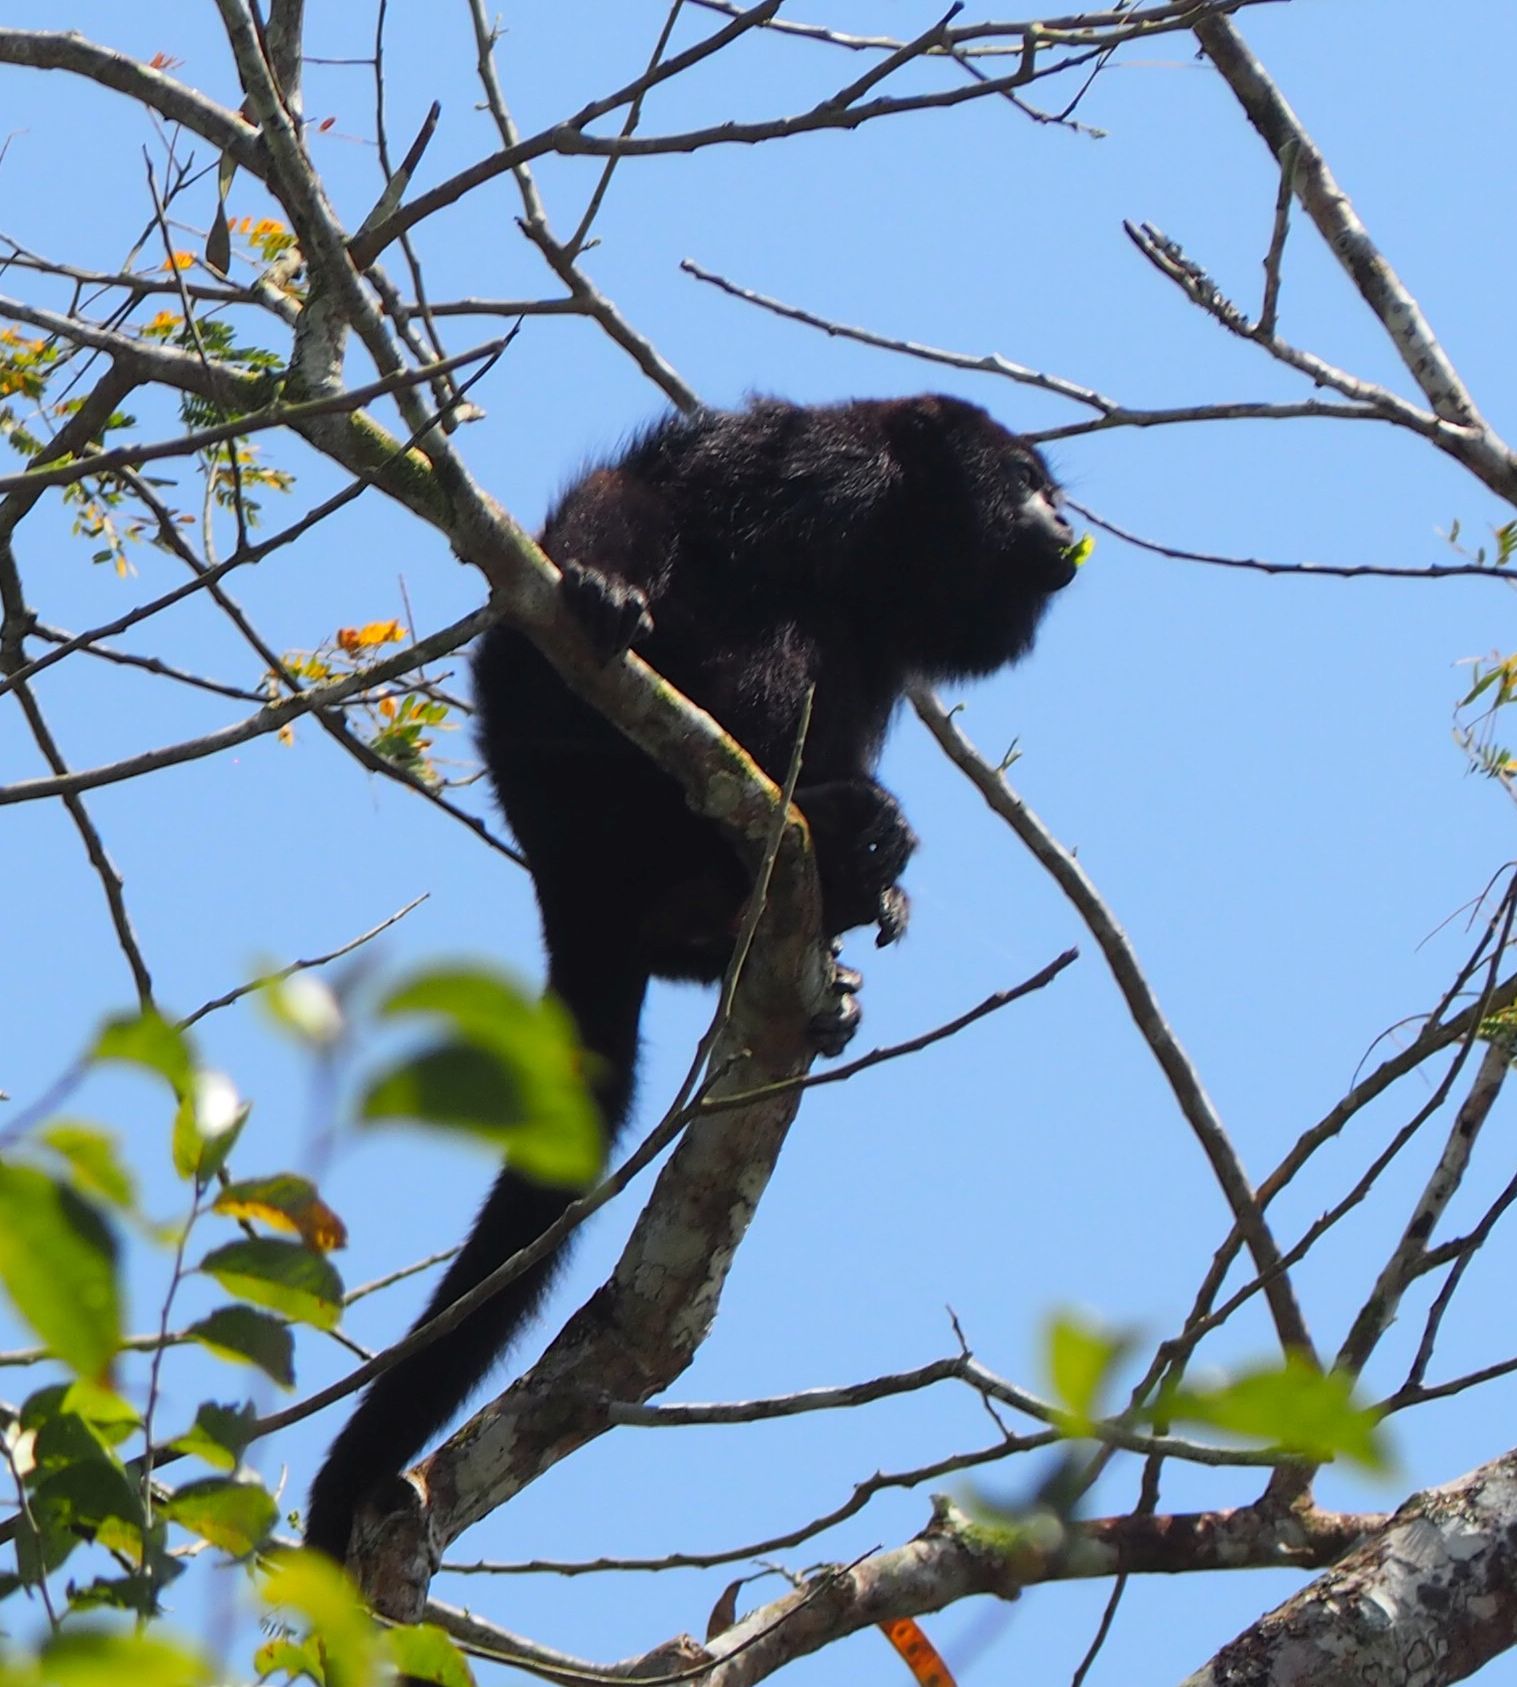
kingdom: Animalia
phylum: Chordata
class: Mammalia
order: Primates
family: Atelidae
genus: Alouatta
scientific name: Alouatta pigra
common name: Guatemalan black howler
